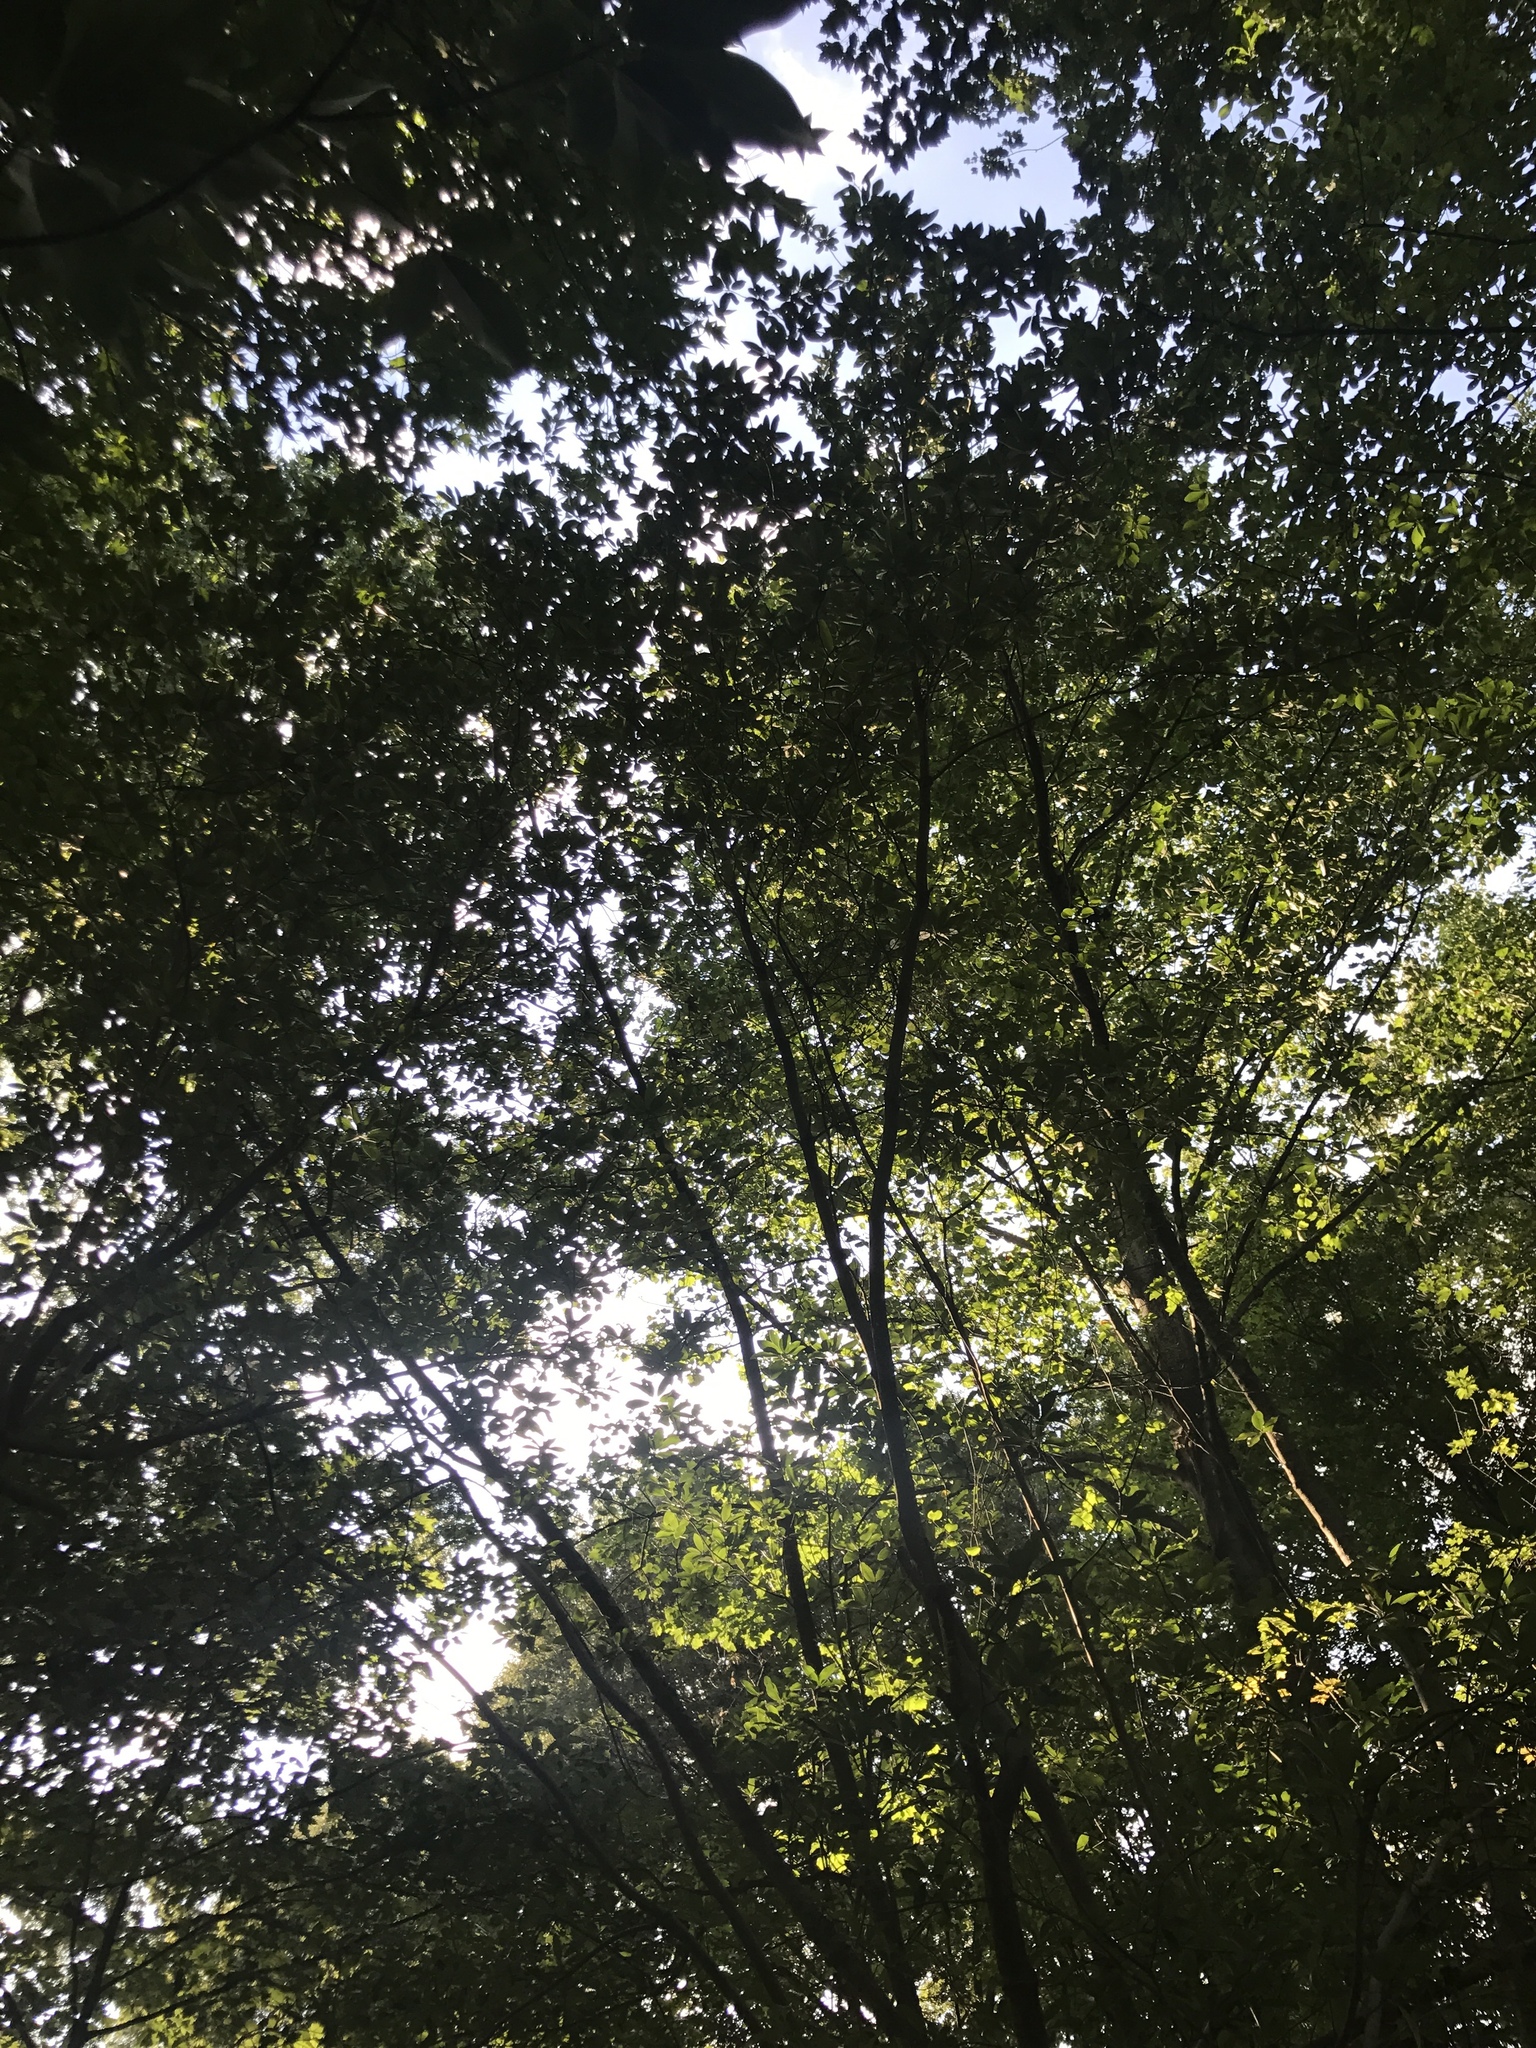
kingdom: Plantae
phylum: Tracheophyta
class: Magnoliopsida
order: Magnoliales
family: Magnoliaceae
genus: Magnolia
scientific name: Magnolia virginiana
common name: Swamp bay
